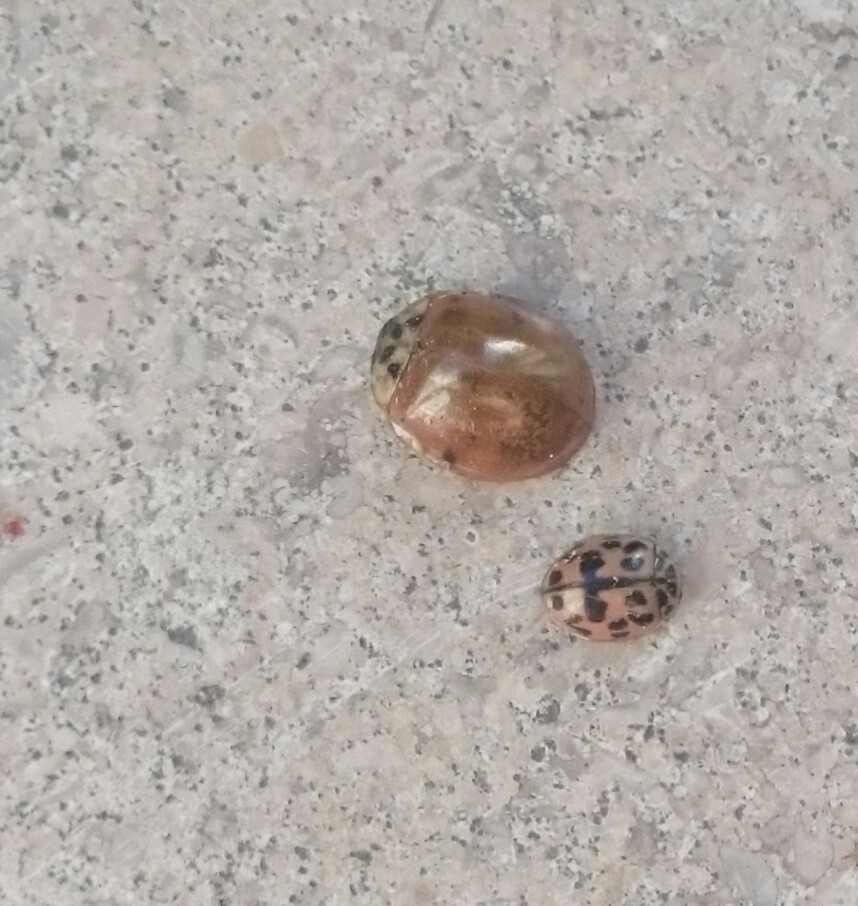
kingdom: Animalia
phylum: Arthropoda
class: Insecta
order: Coleoptera
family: Coccinellidae
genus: Harmonia
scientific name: Harmonia axyridis
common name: Harlequin ladybird
